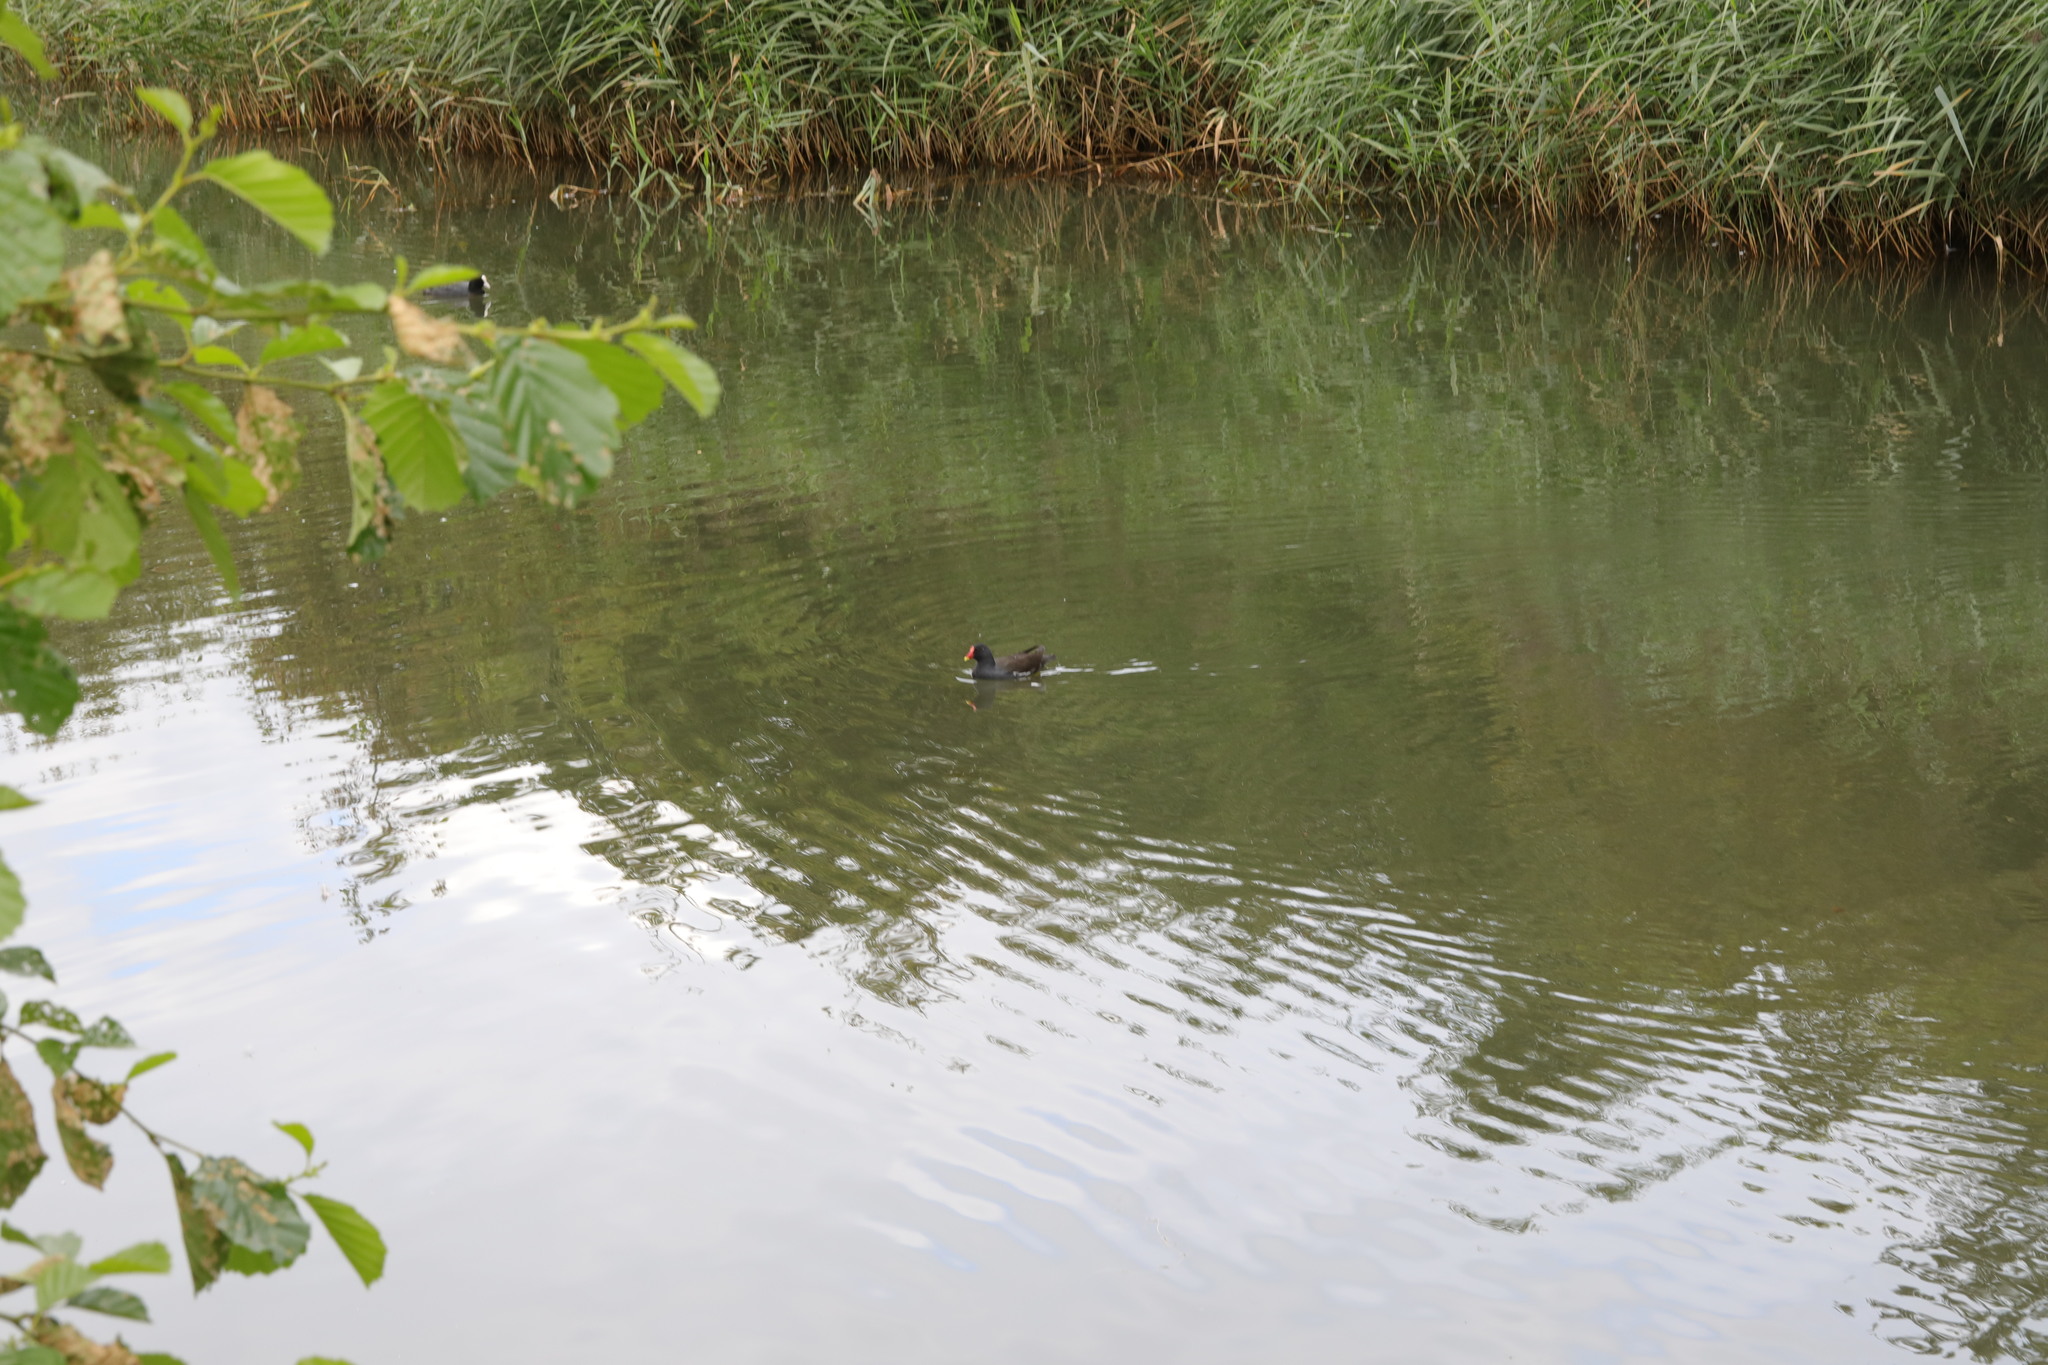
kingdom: Animalia
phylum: Chordata
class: Aves
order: Gruiformes
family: Rallidae
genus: Gallinula
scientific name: Gallinula chloropus
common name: Common moorhen
